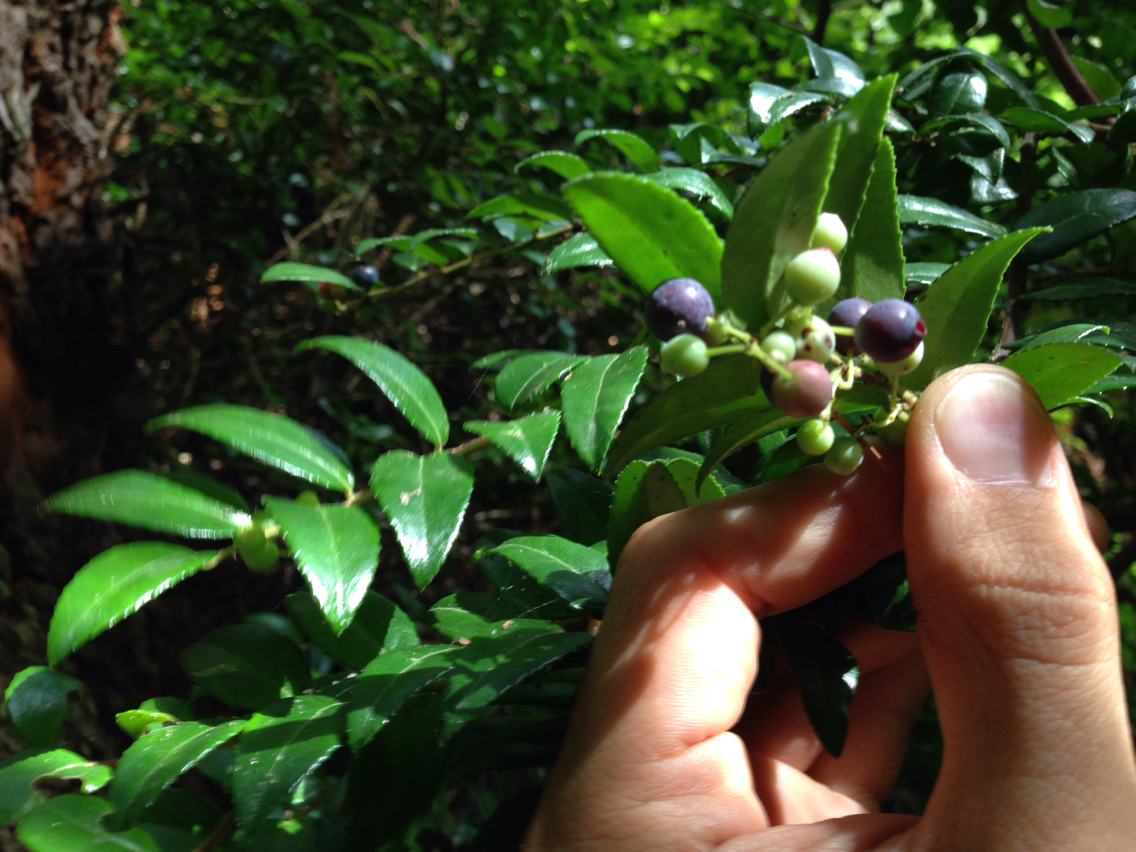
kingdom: Plantae
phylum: Tracheophyta
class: Magnoliopsida
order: Ericales
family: Ericaceae
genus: Vaccinium
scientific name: Vaccinium ovatum
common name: California-huckleberry
